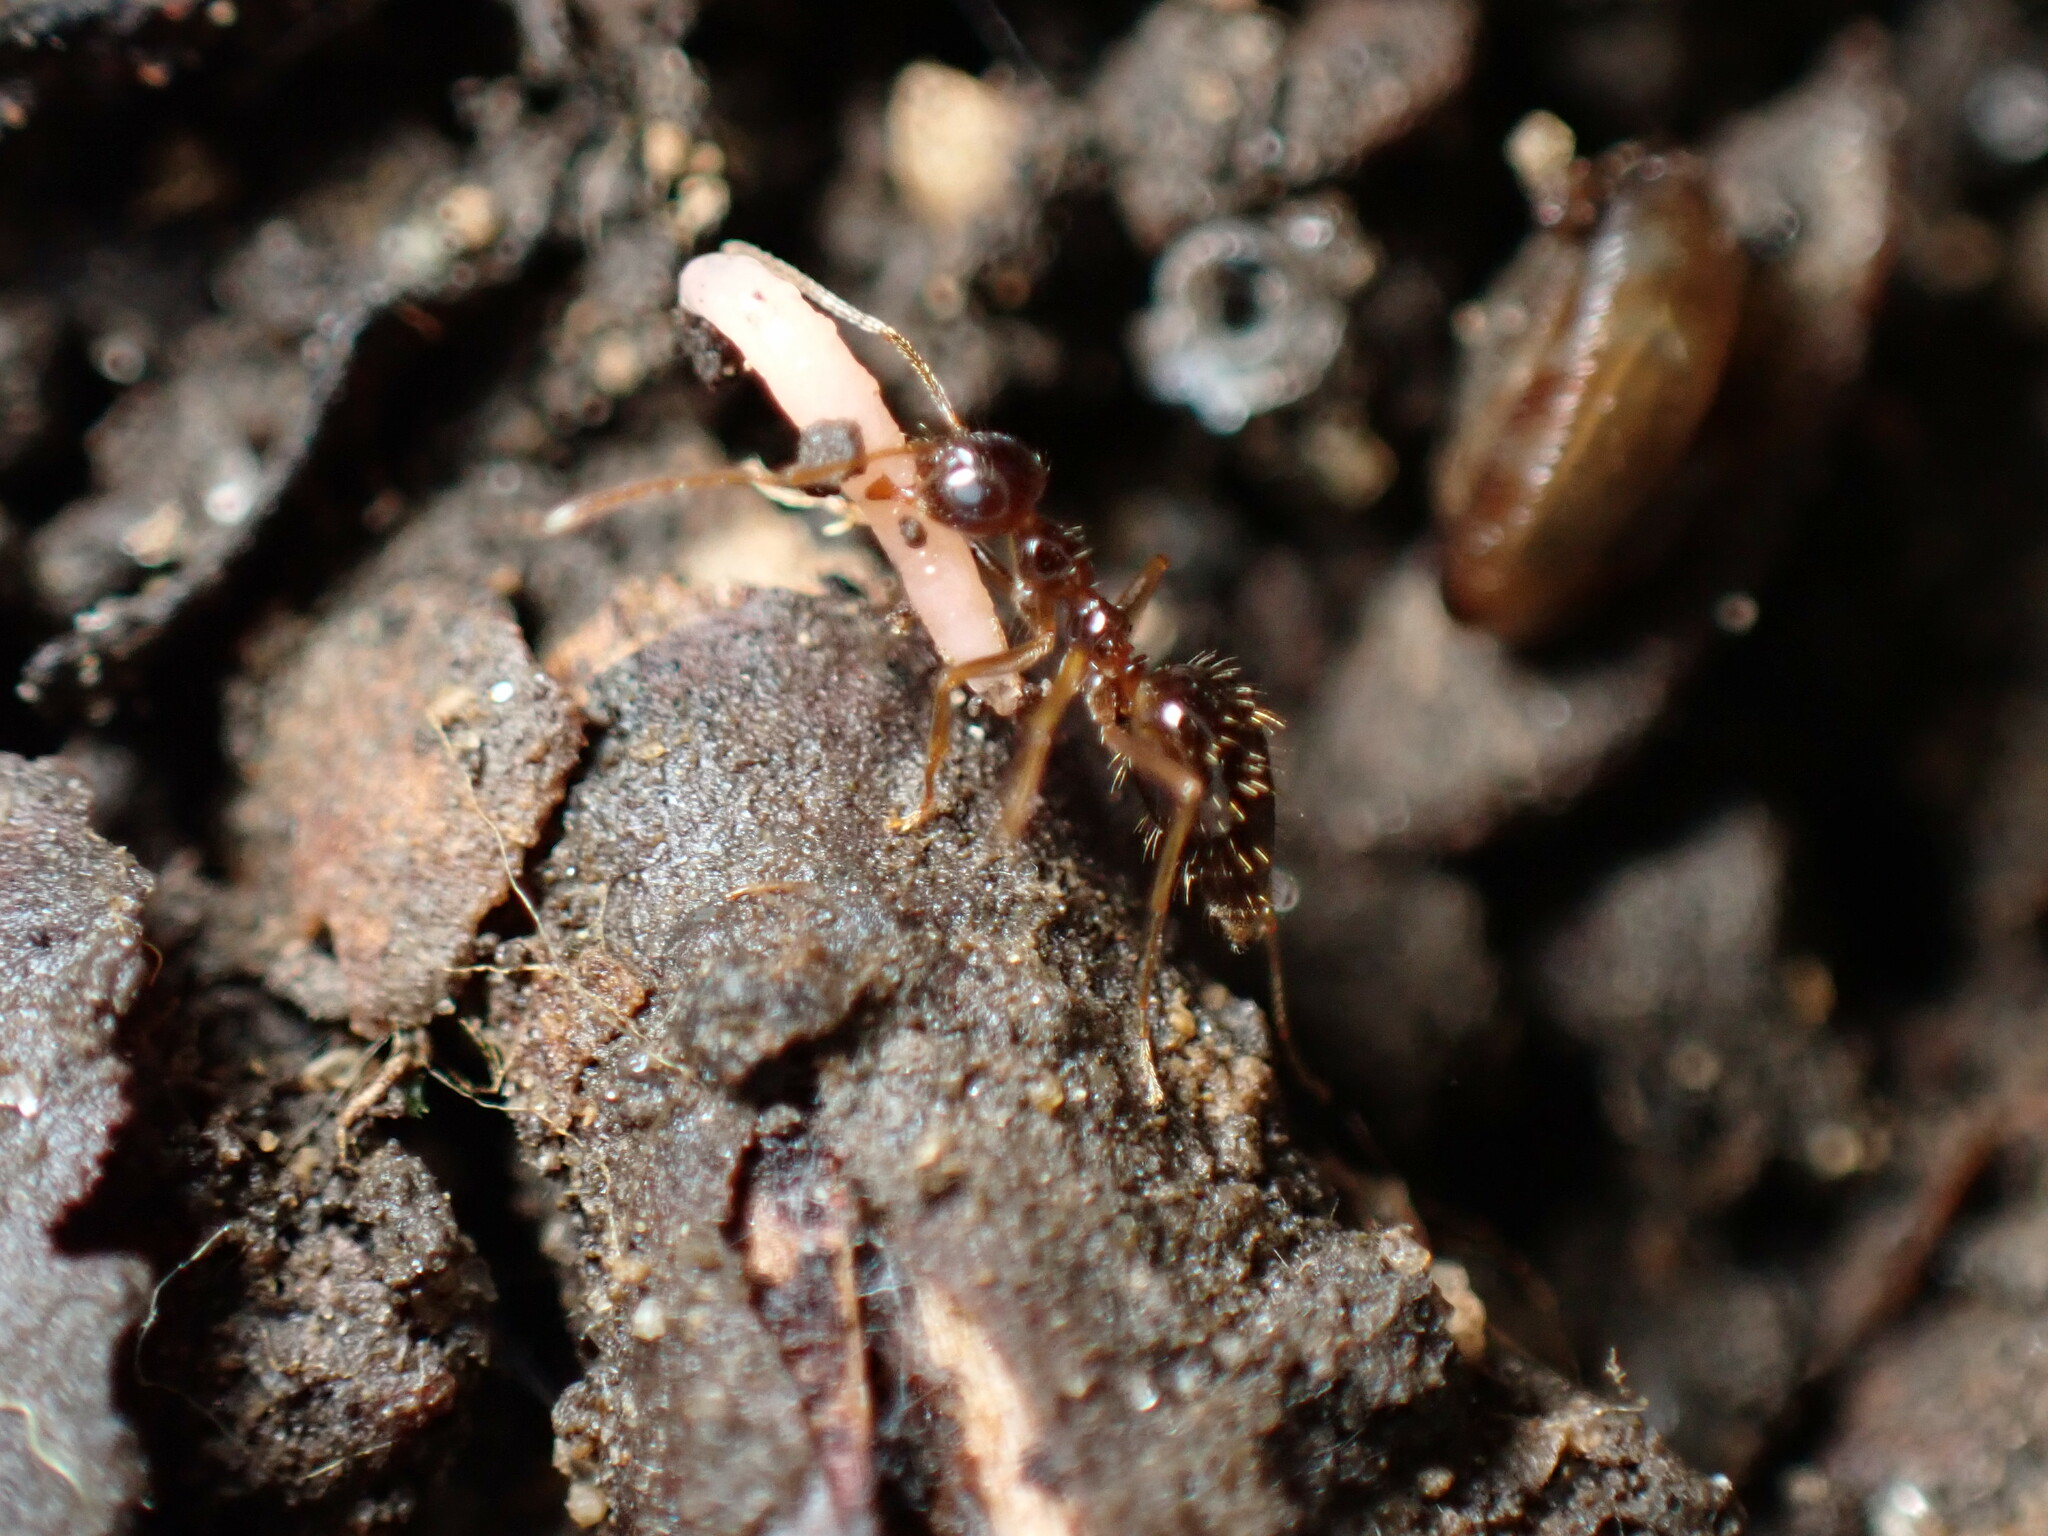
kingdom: Animalia
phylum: Arthropoda
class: Insecta
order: Hymenoptera
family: Formicidae
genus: Prenolepis
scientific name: Prenolepis imparis
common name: Small honey ant
